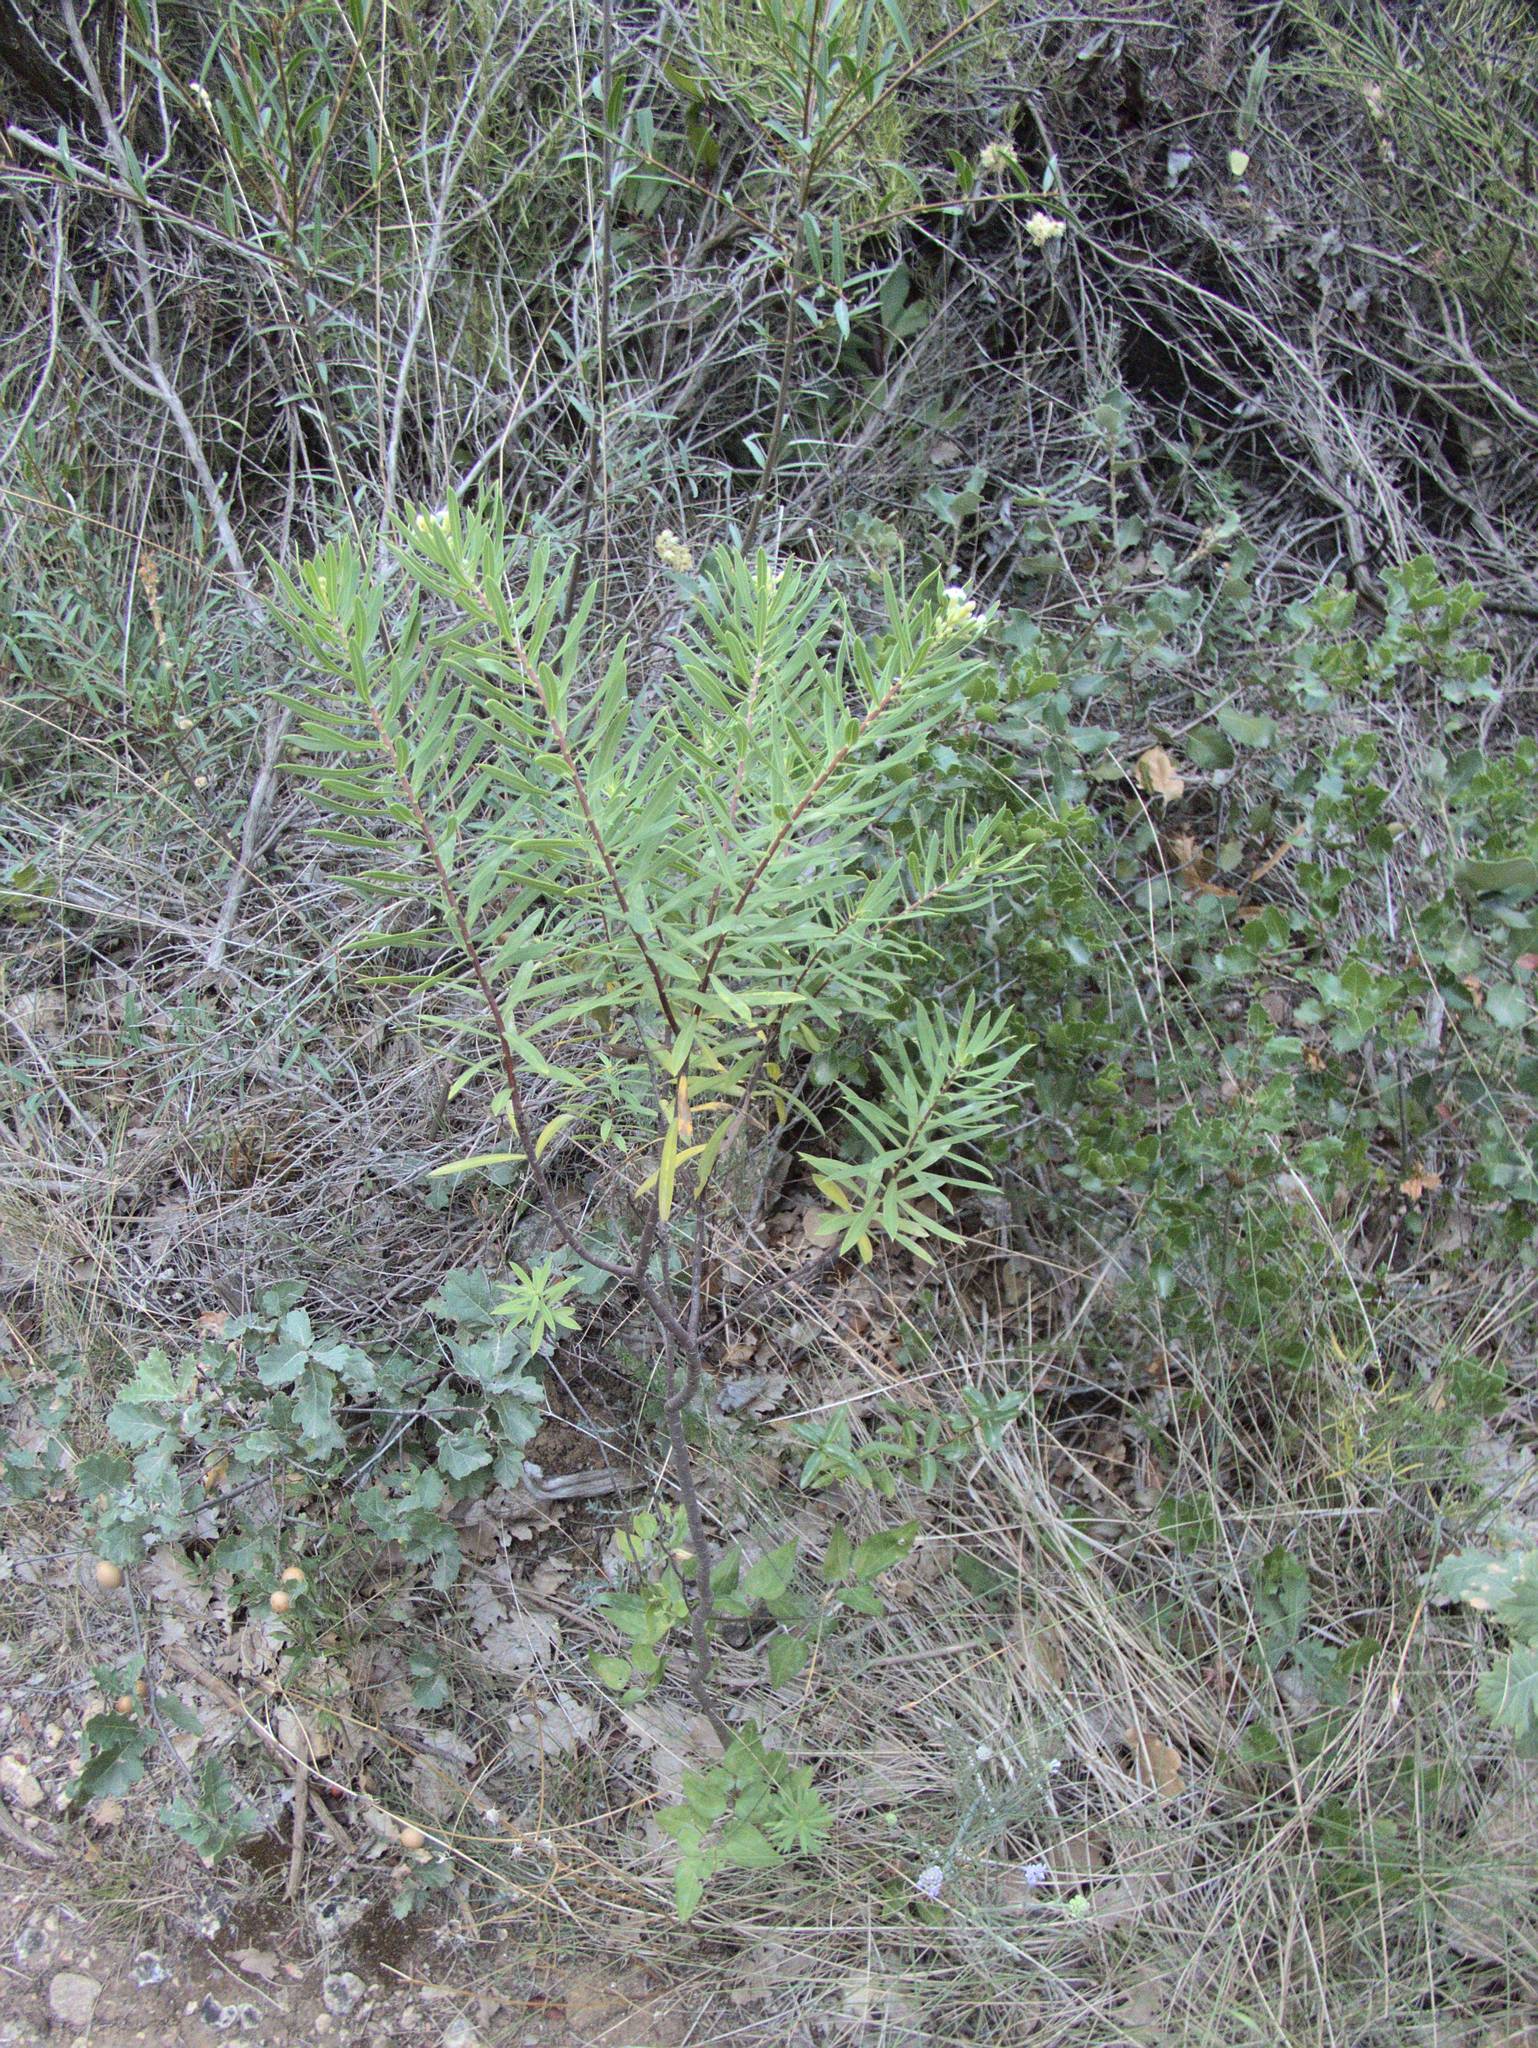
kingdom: Plantae
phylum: Tracheophyta
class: Magnoliopsida
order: Malvales
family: Thymelaeaceae
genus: Daphne
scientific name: Daphne gnidium
